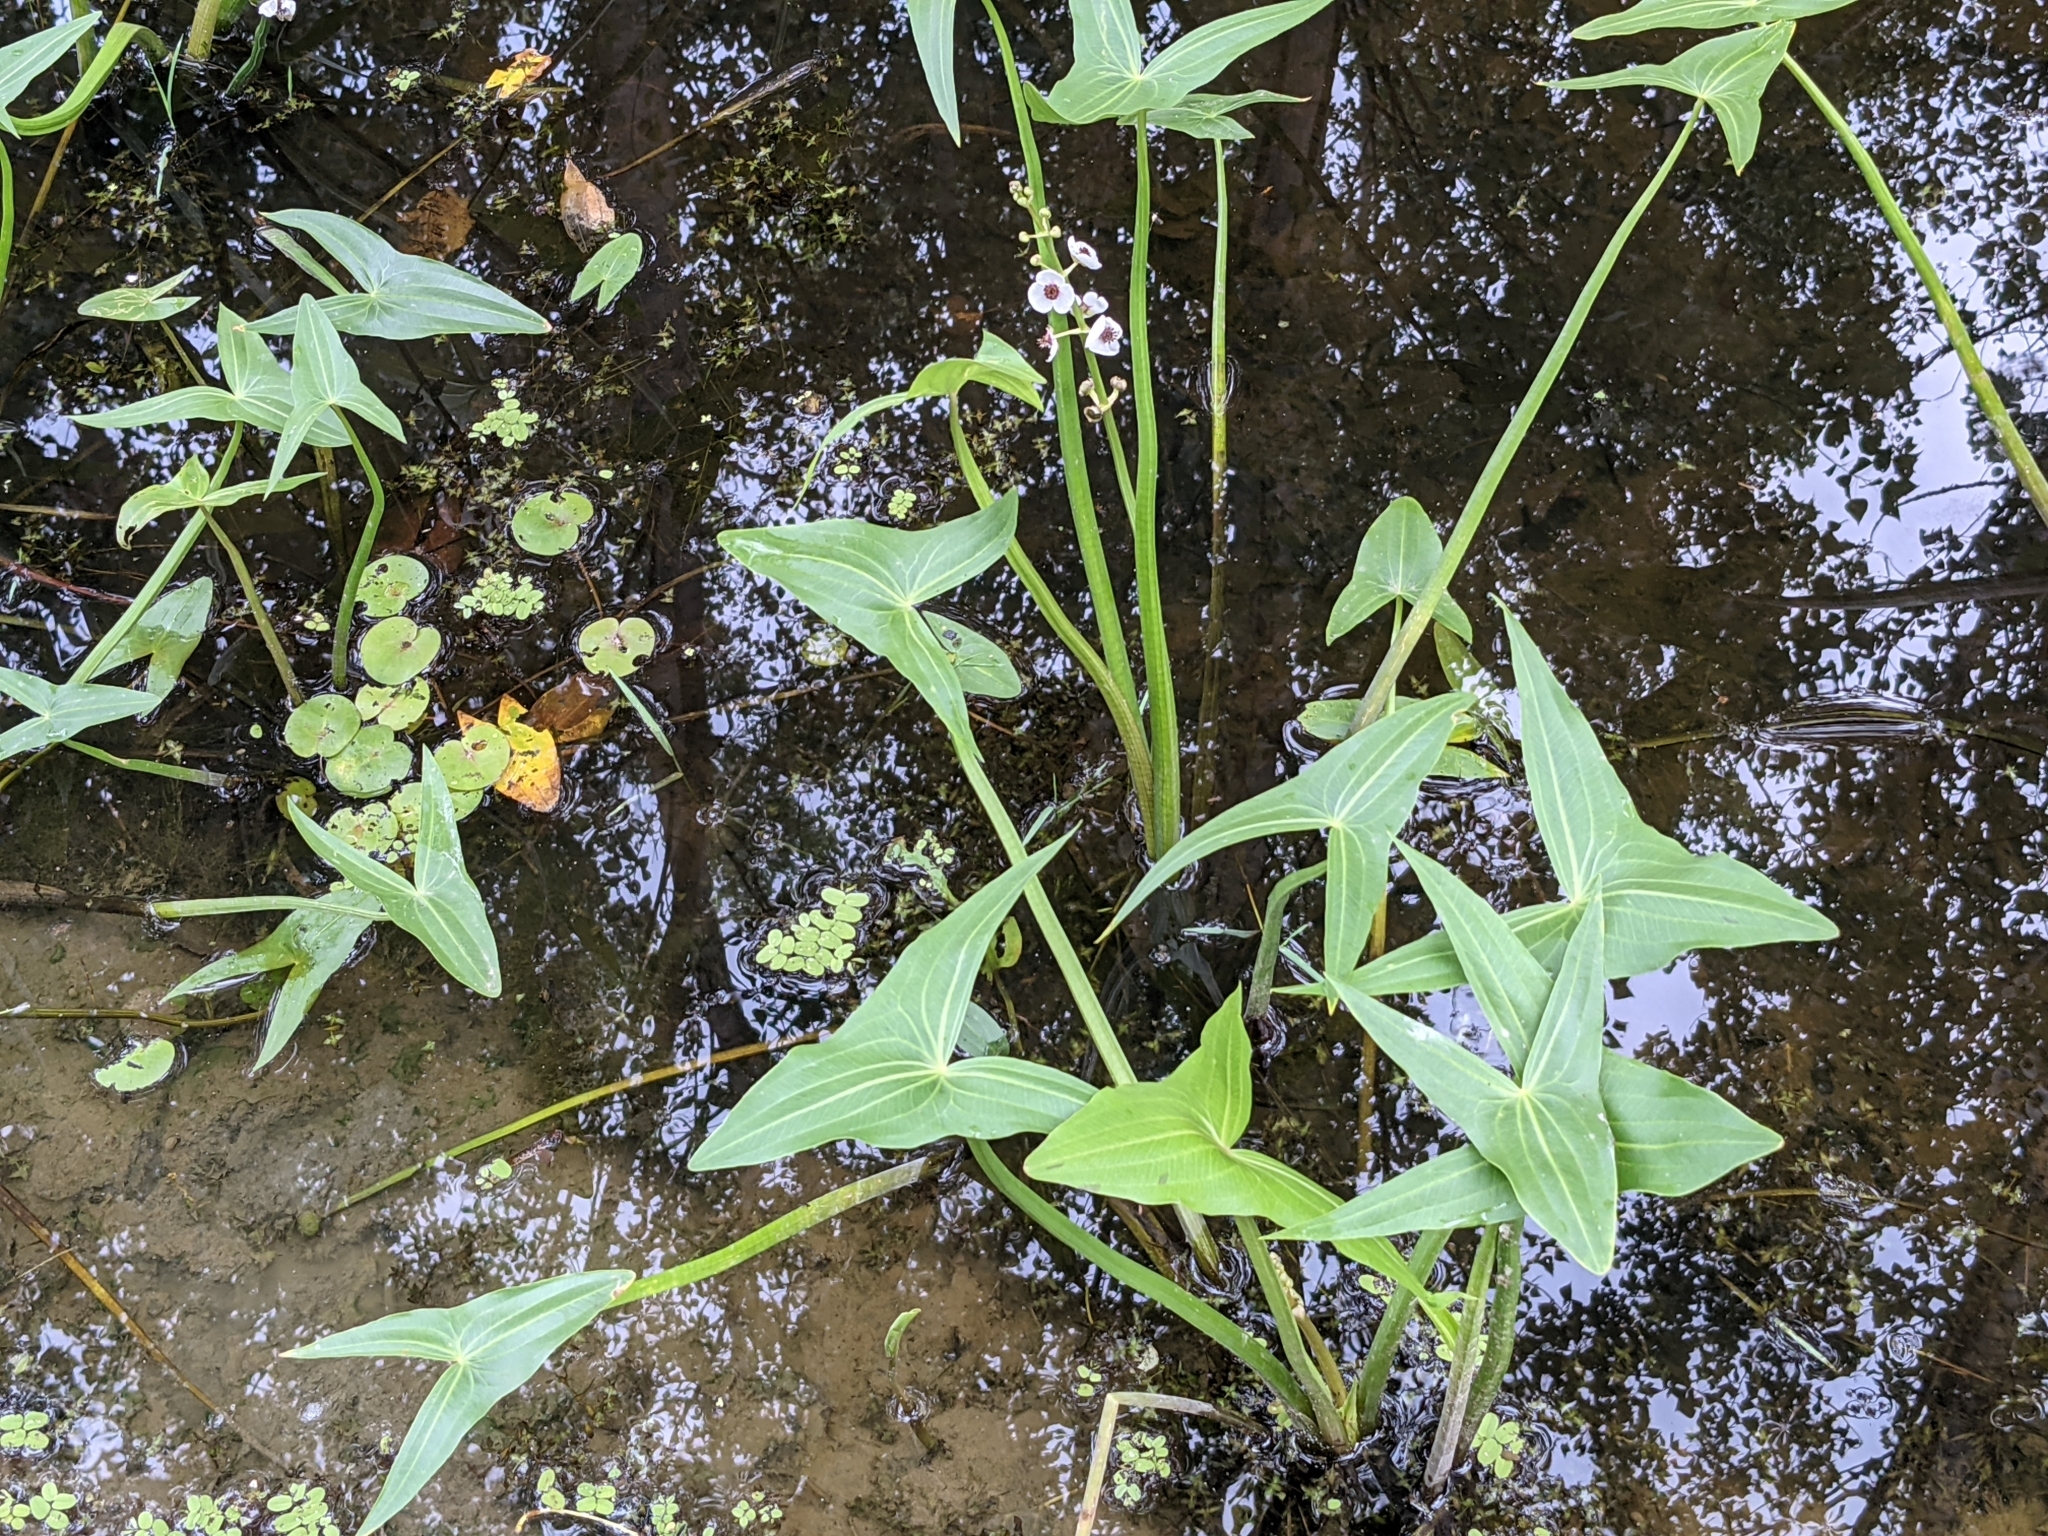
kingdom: Plantae
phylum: Tracheophyta
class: Liliopsida
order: Alismatales
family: Alismataceae
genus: Sagittaria
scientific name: Sagittaria sagittifolia
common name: Arrowhead
